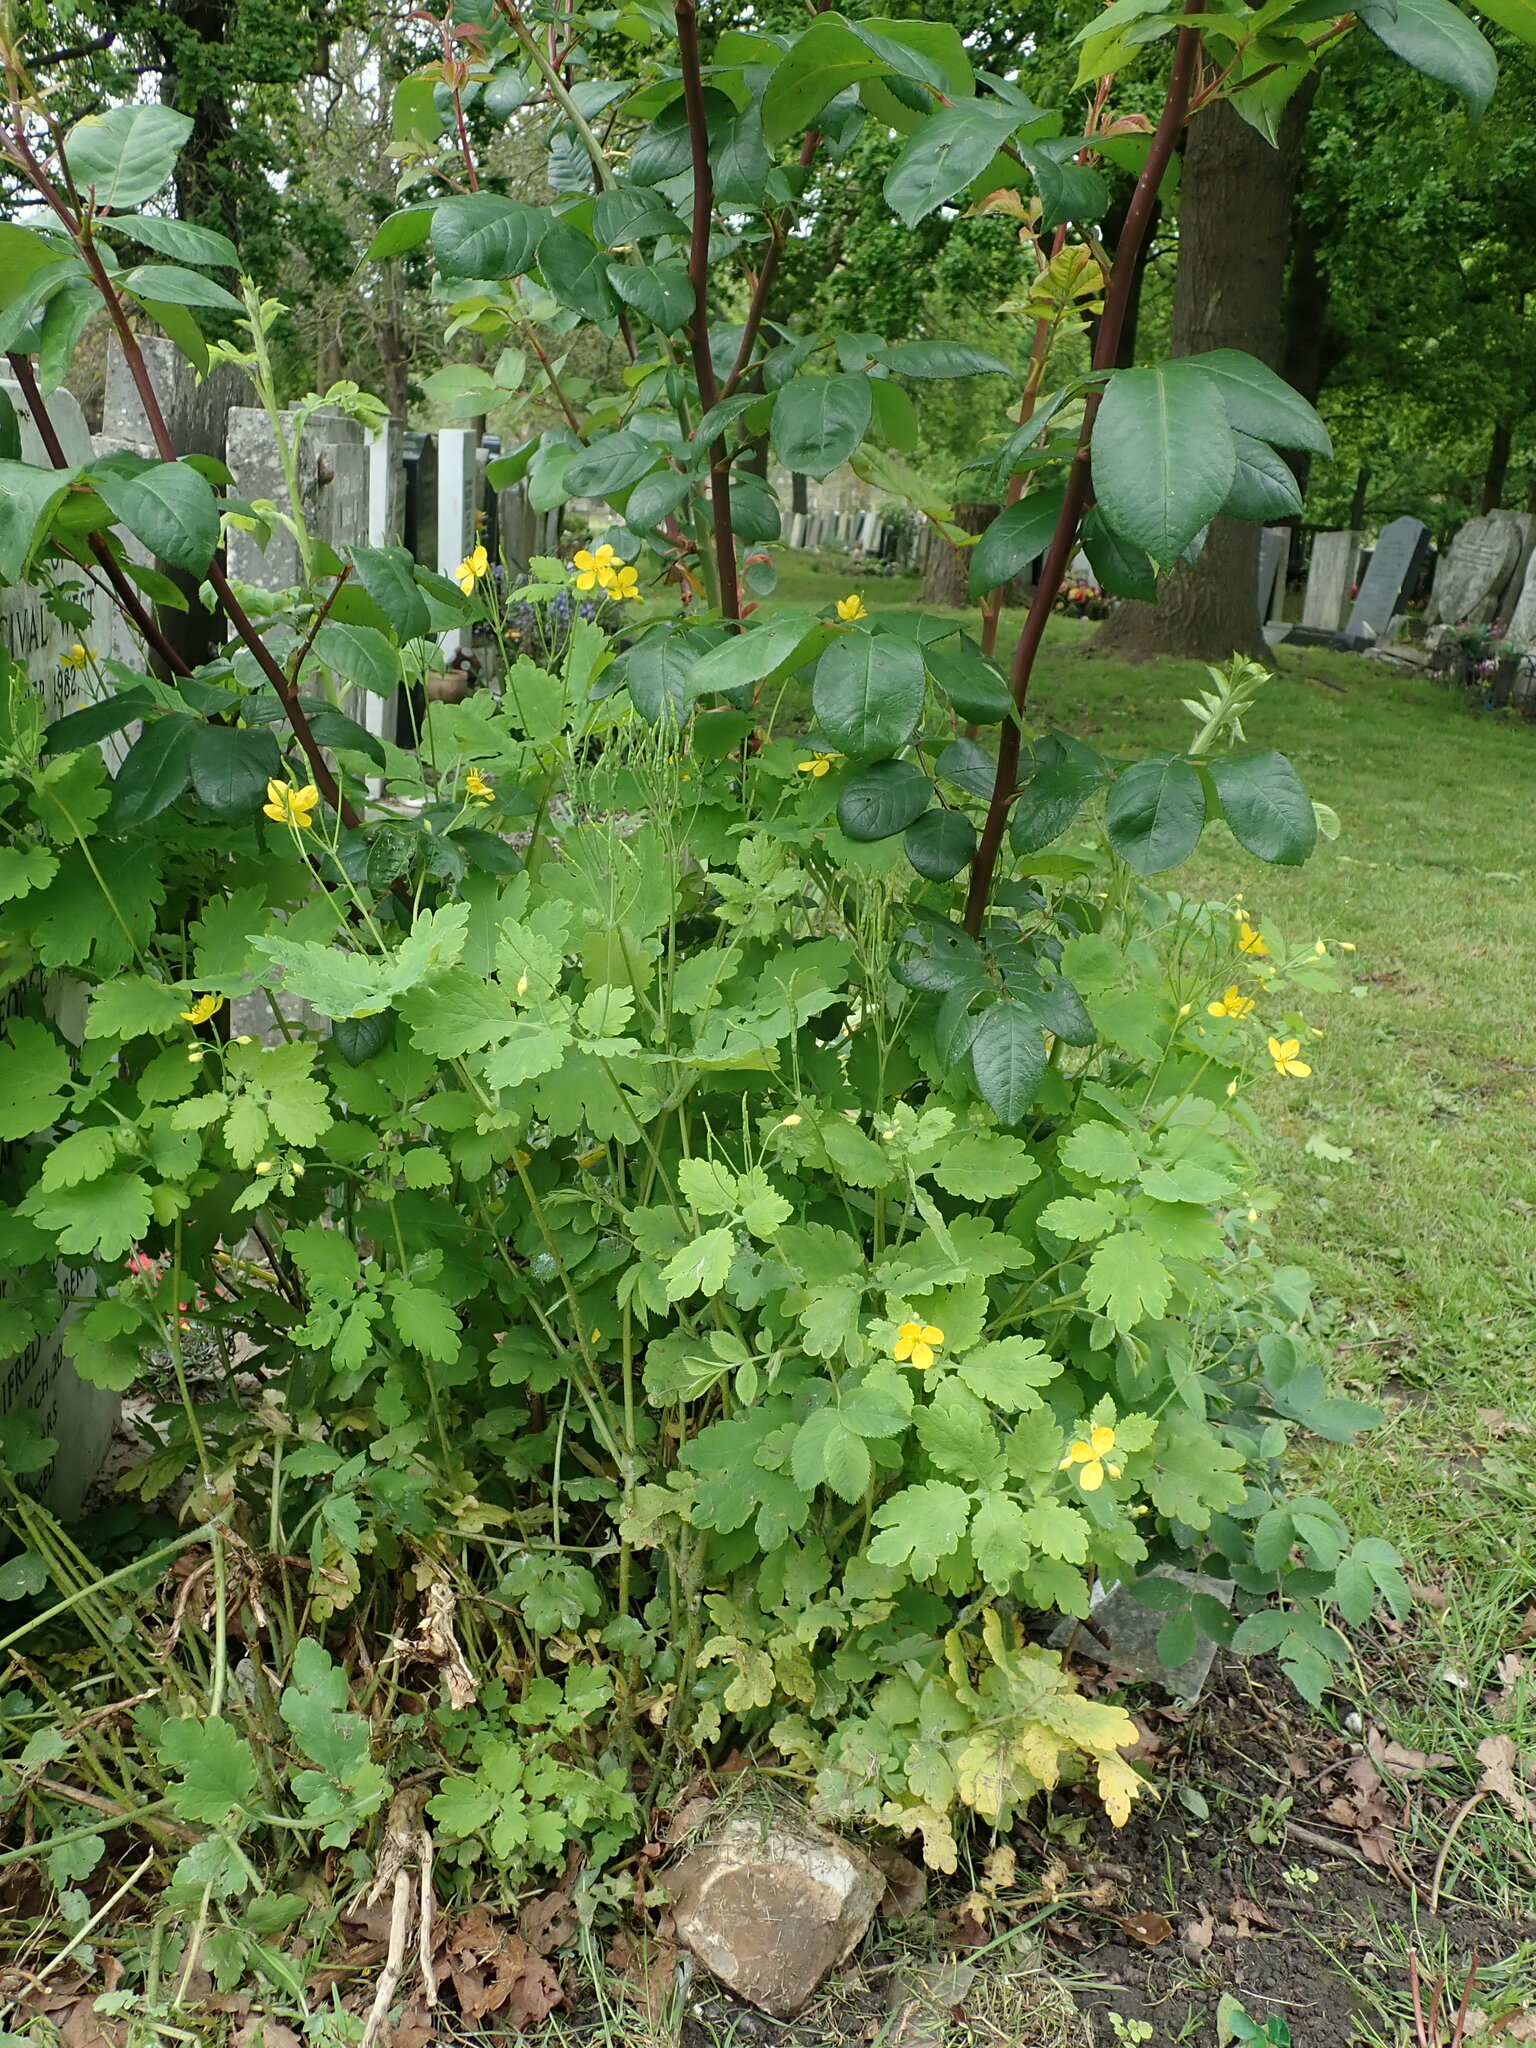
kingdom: Plantae
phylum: Tracheophyta
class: Magnoliopsida
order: Ranunculales
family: Papaveraceae
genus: Chelidonium
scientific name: Chelidonium majus
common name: Greater celandine
